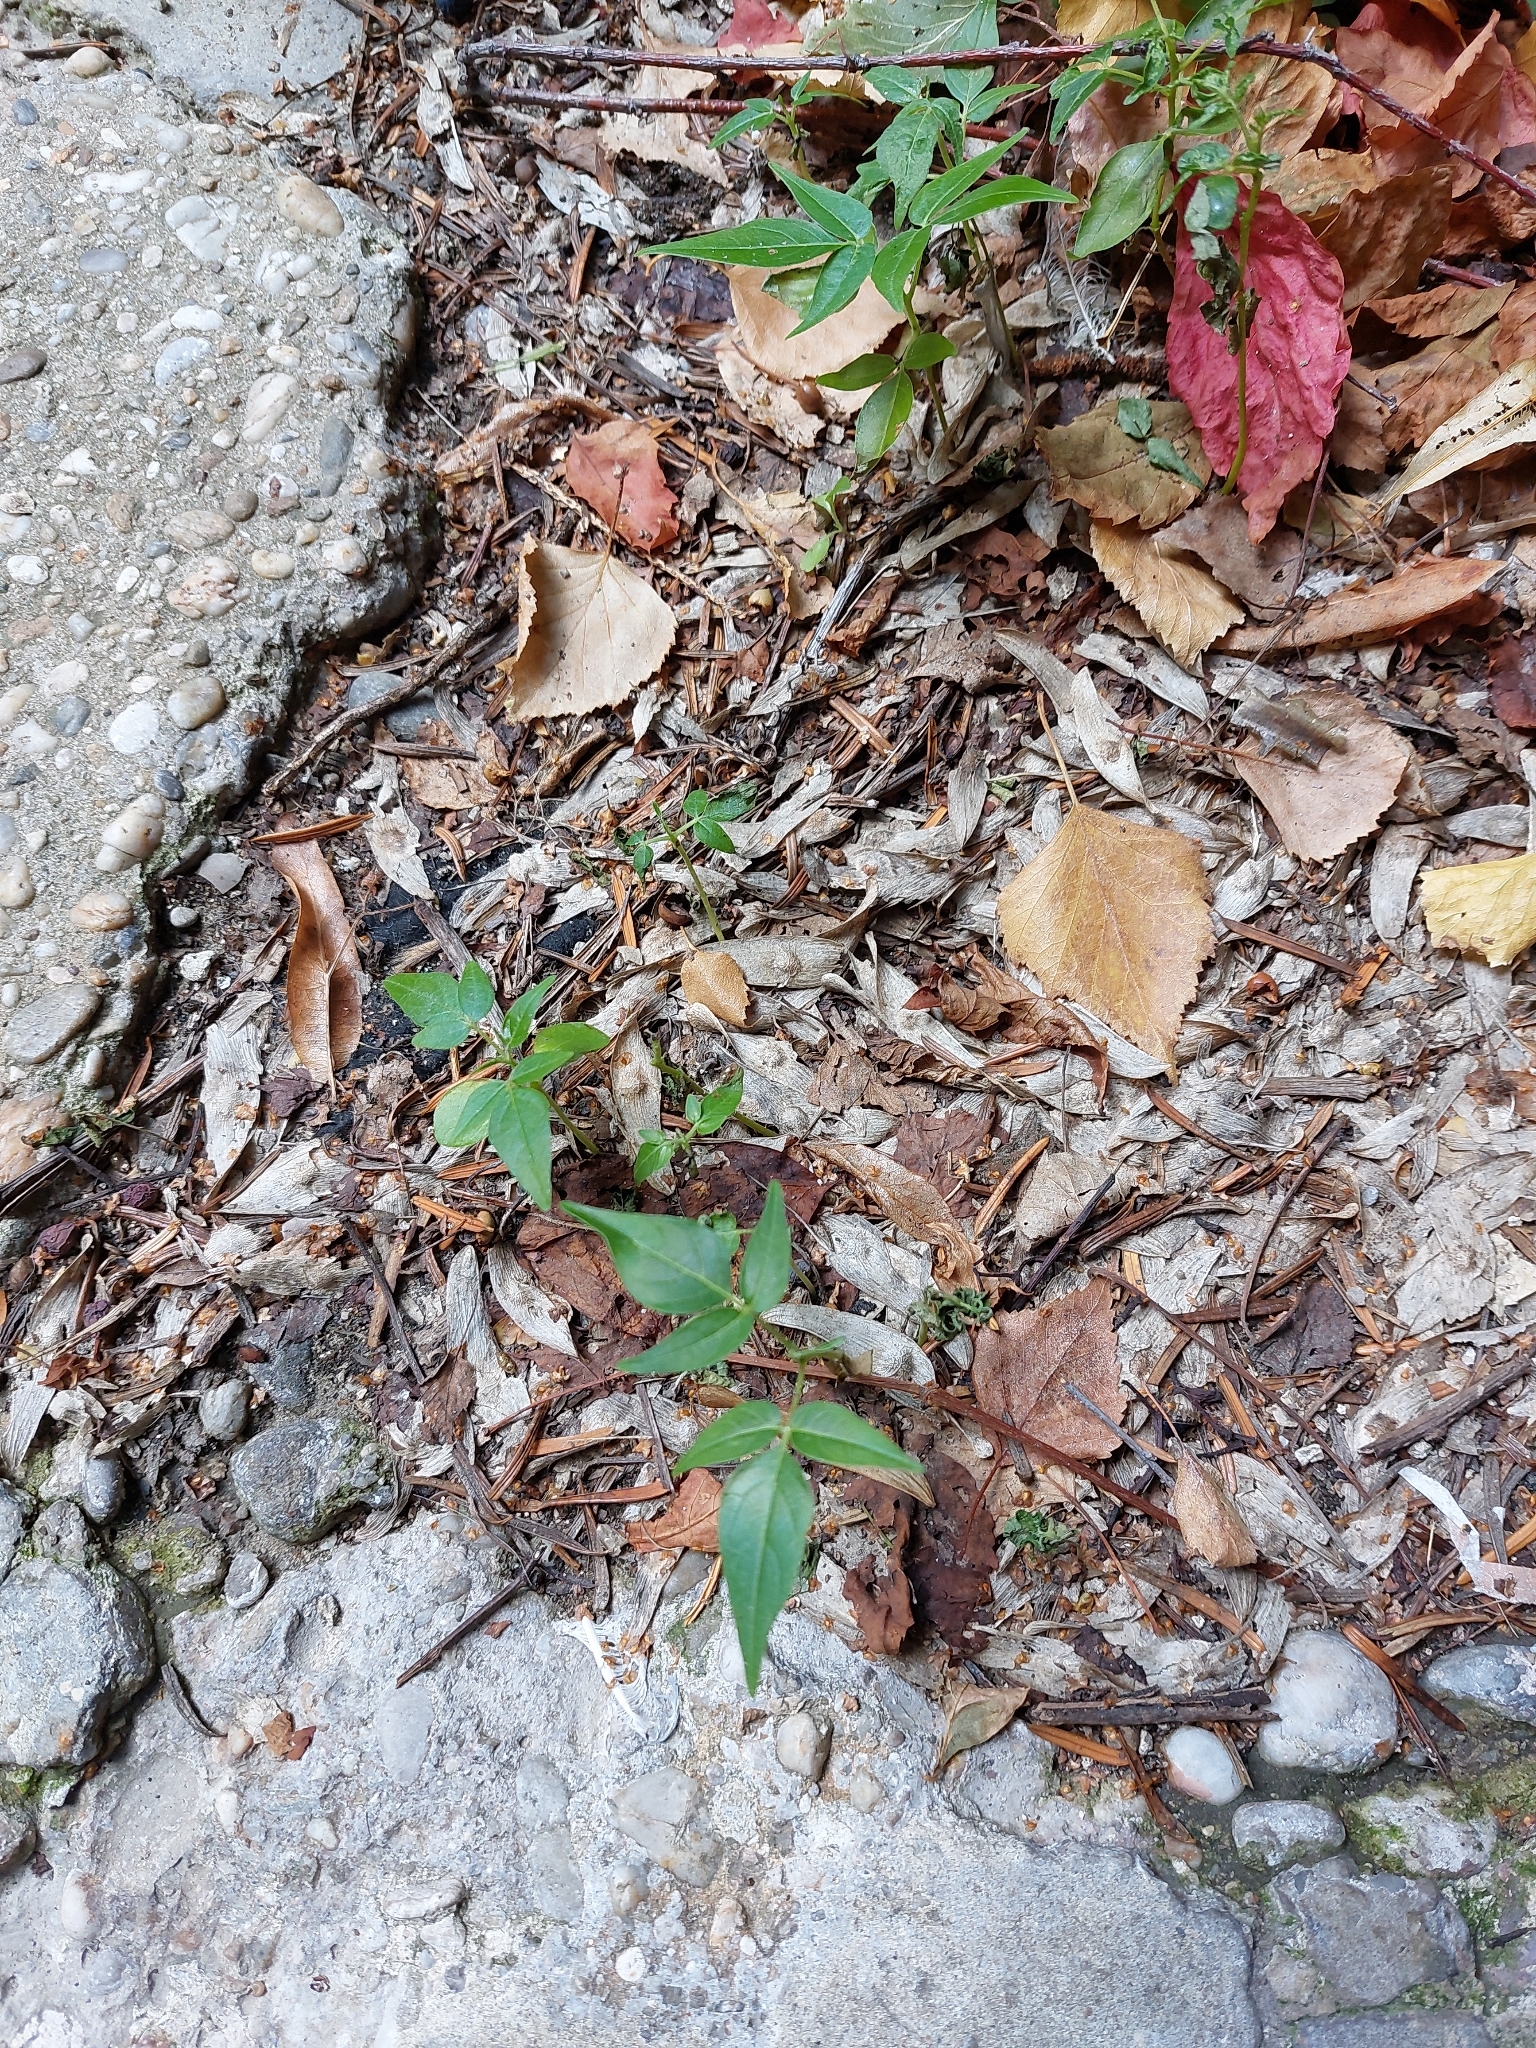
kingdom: Plantae
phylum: Tracheophyta
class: Magnoliopsida
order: Sapindales
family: Simaroubaceae
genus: Ailanthus
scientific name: Ailanthus altissima
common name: Tree-of-heaven
